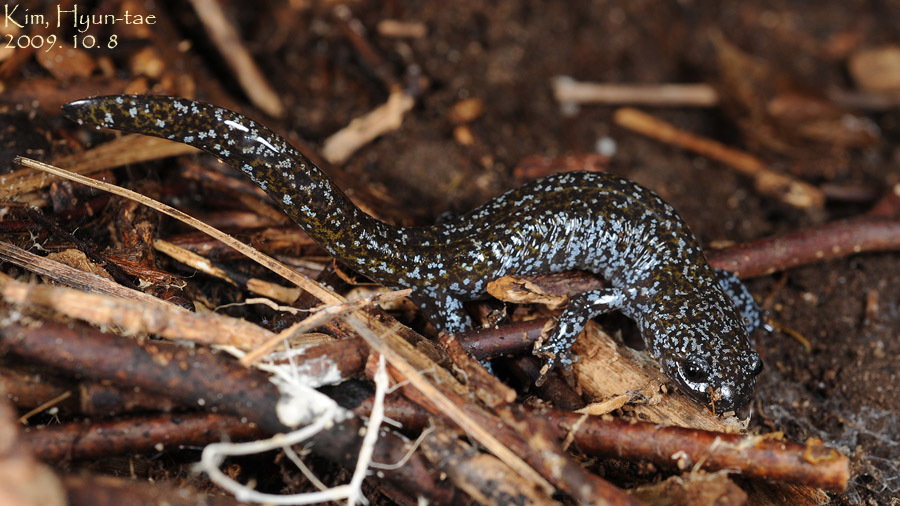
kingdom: Animalia
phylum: Chordata
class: Amphibia
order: Caudata
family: Hynobiidae
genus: Hynobius
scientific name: Hynobius leechii
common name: Gensan salamander
